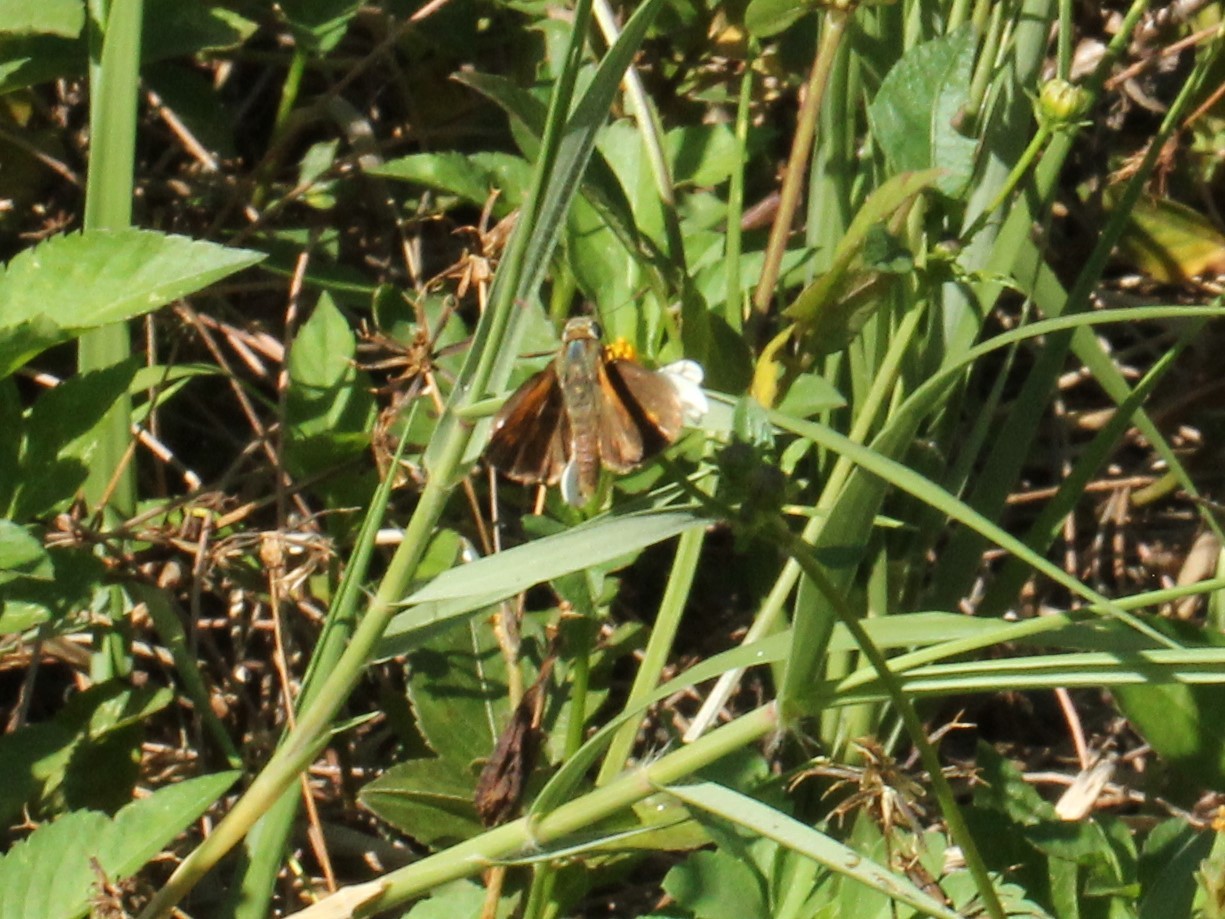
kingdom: Animalia
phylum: Arthropoda
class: Insecta
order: Lepidoptera
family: Hesperiidae
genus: Polites
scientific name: Polites otho
